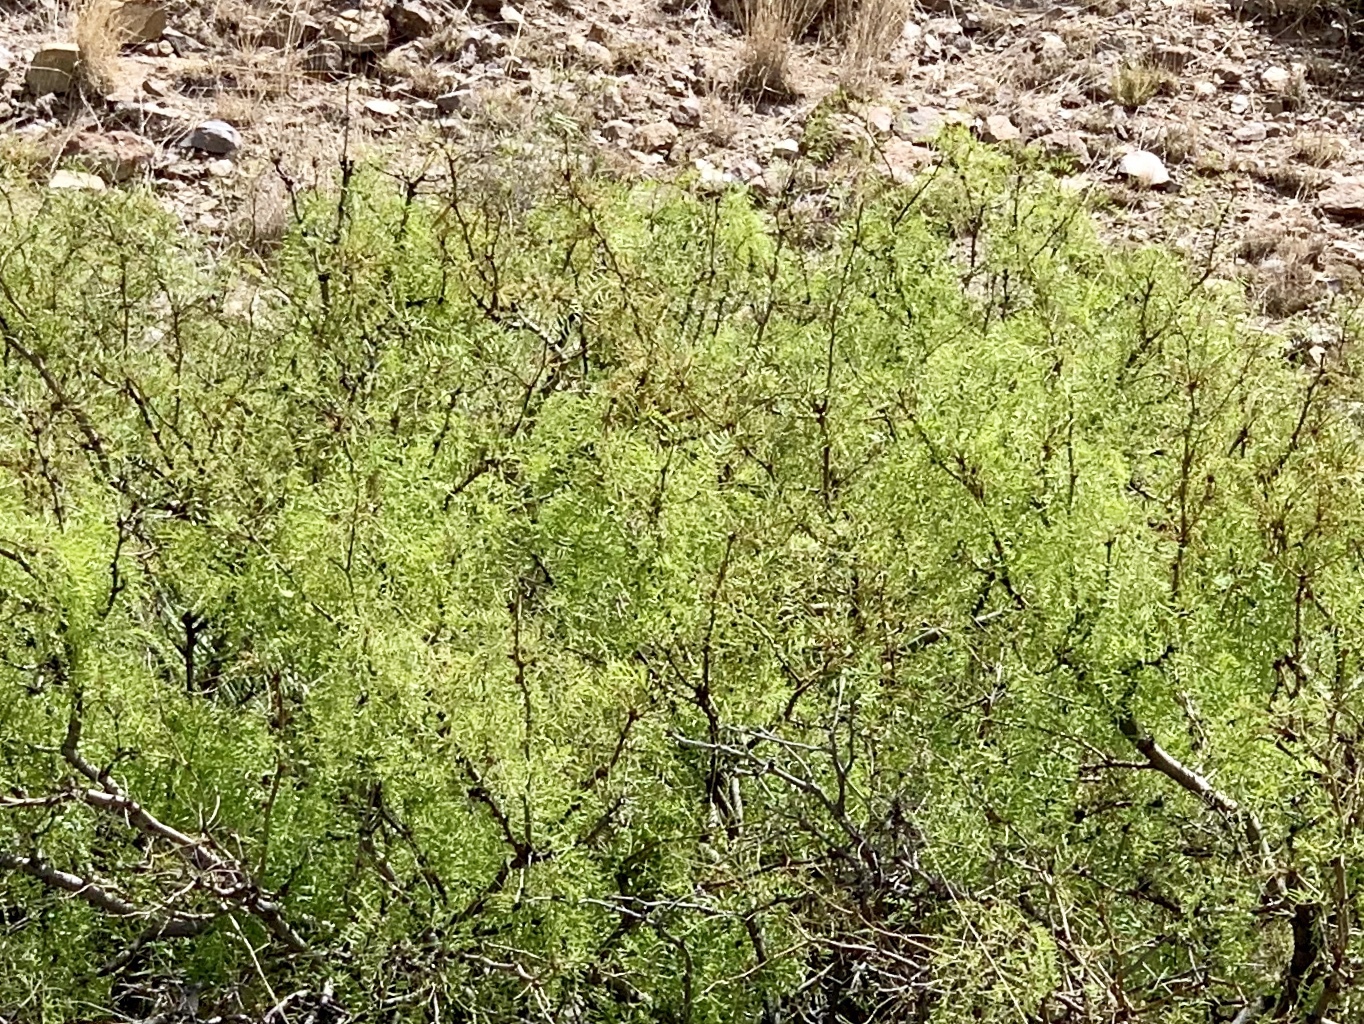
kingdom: Plantae
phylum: Tracheophyta
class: Magnoliopsida
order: Fabales
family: Fabaceae
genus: Prosopis
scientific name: Prosopis glandulosa
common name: Honey mesquite
